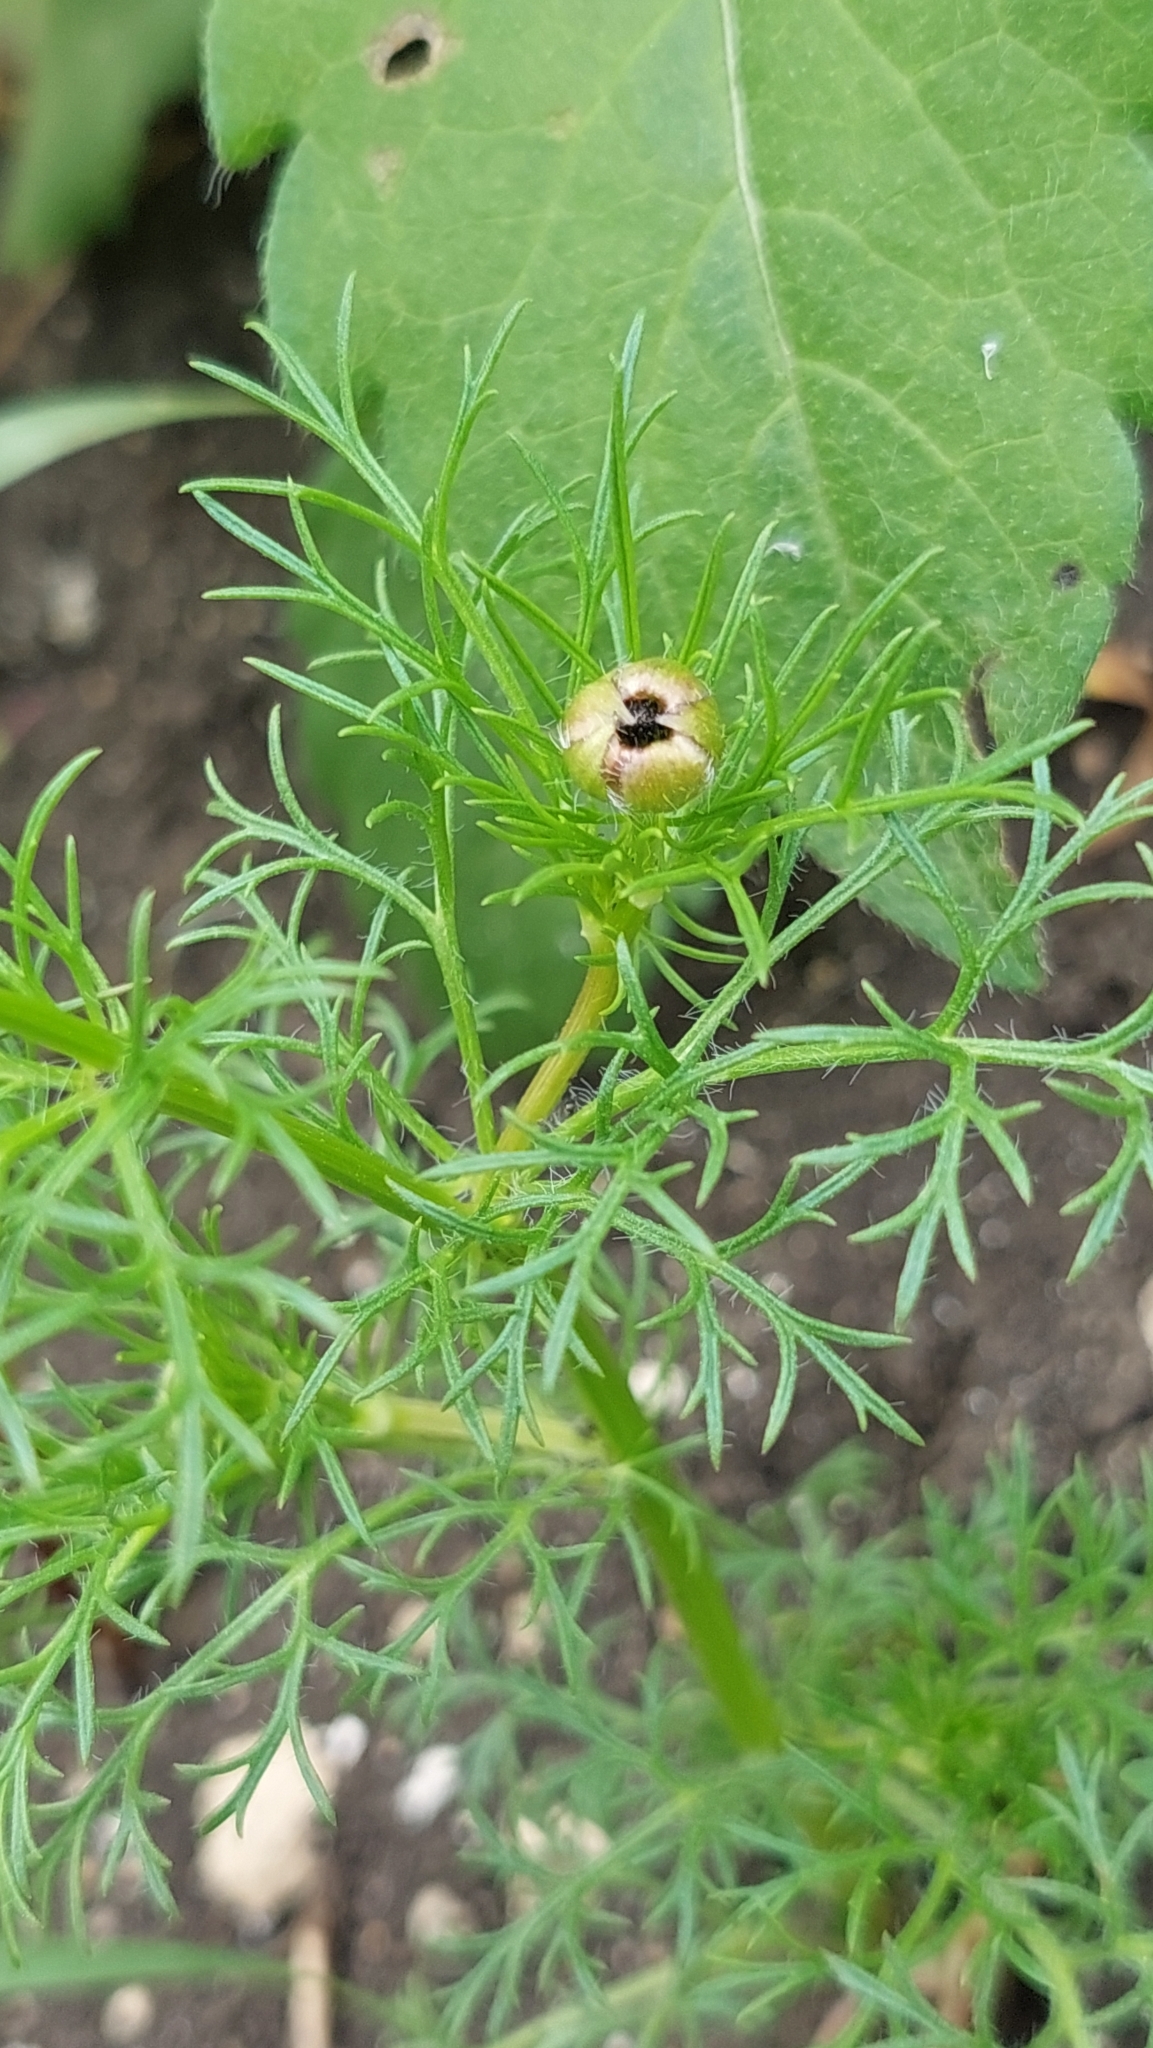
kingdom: Plantae
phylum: Tracheophyta
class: Magnoliopsida
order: Ranunculales
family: Ranunculaceae
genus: Adonis
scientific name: Adonis flammea
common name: Large pheasant's-eye
